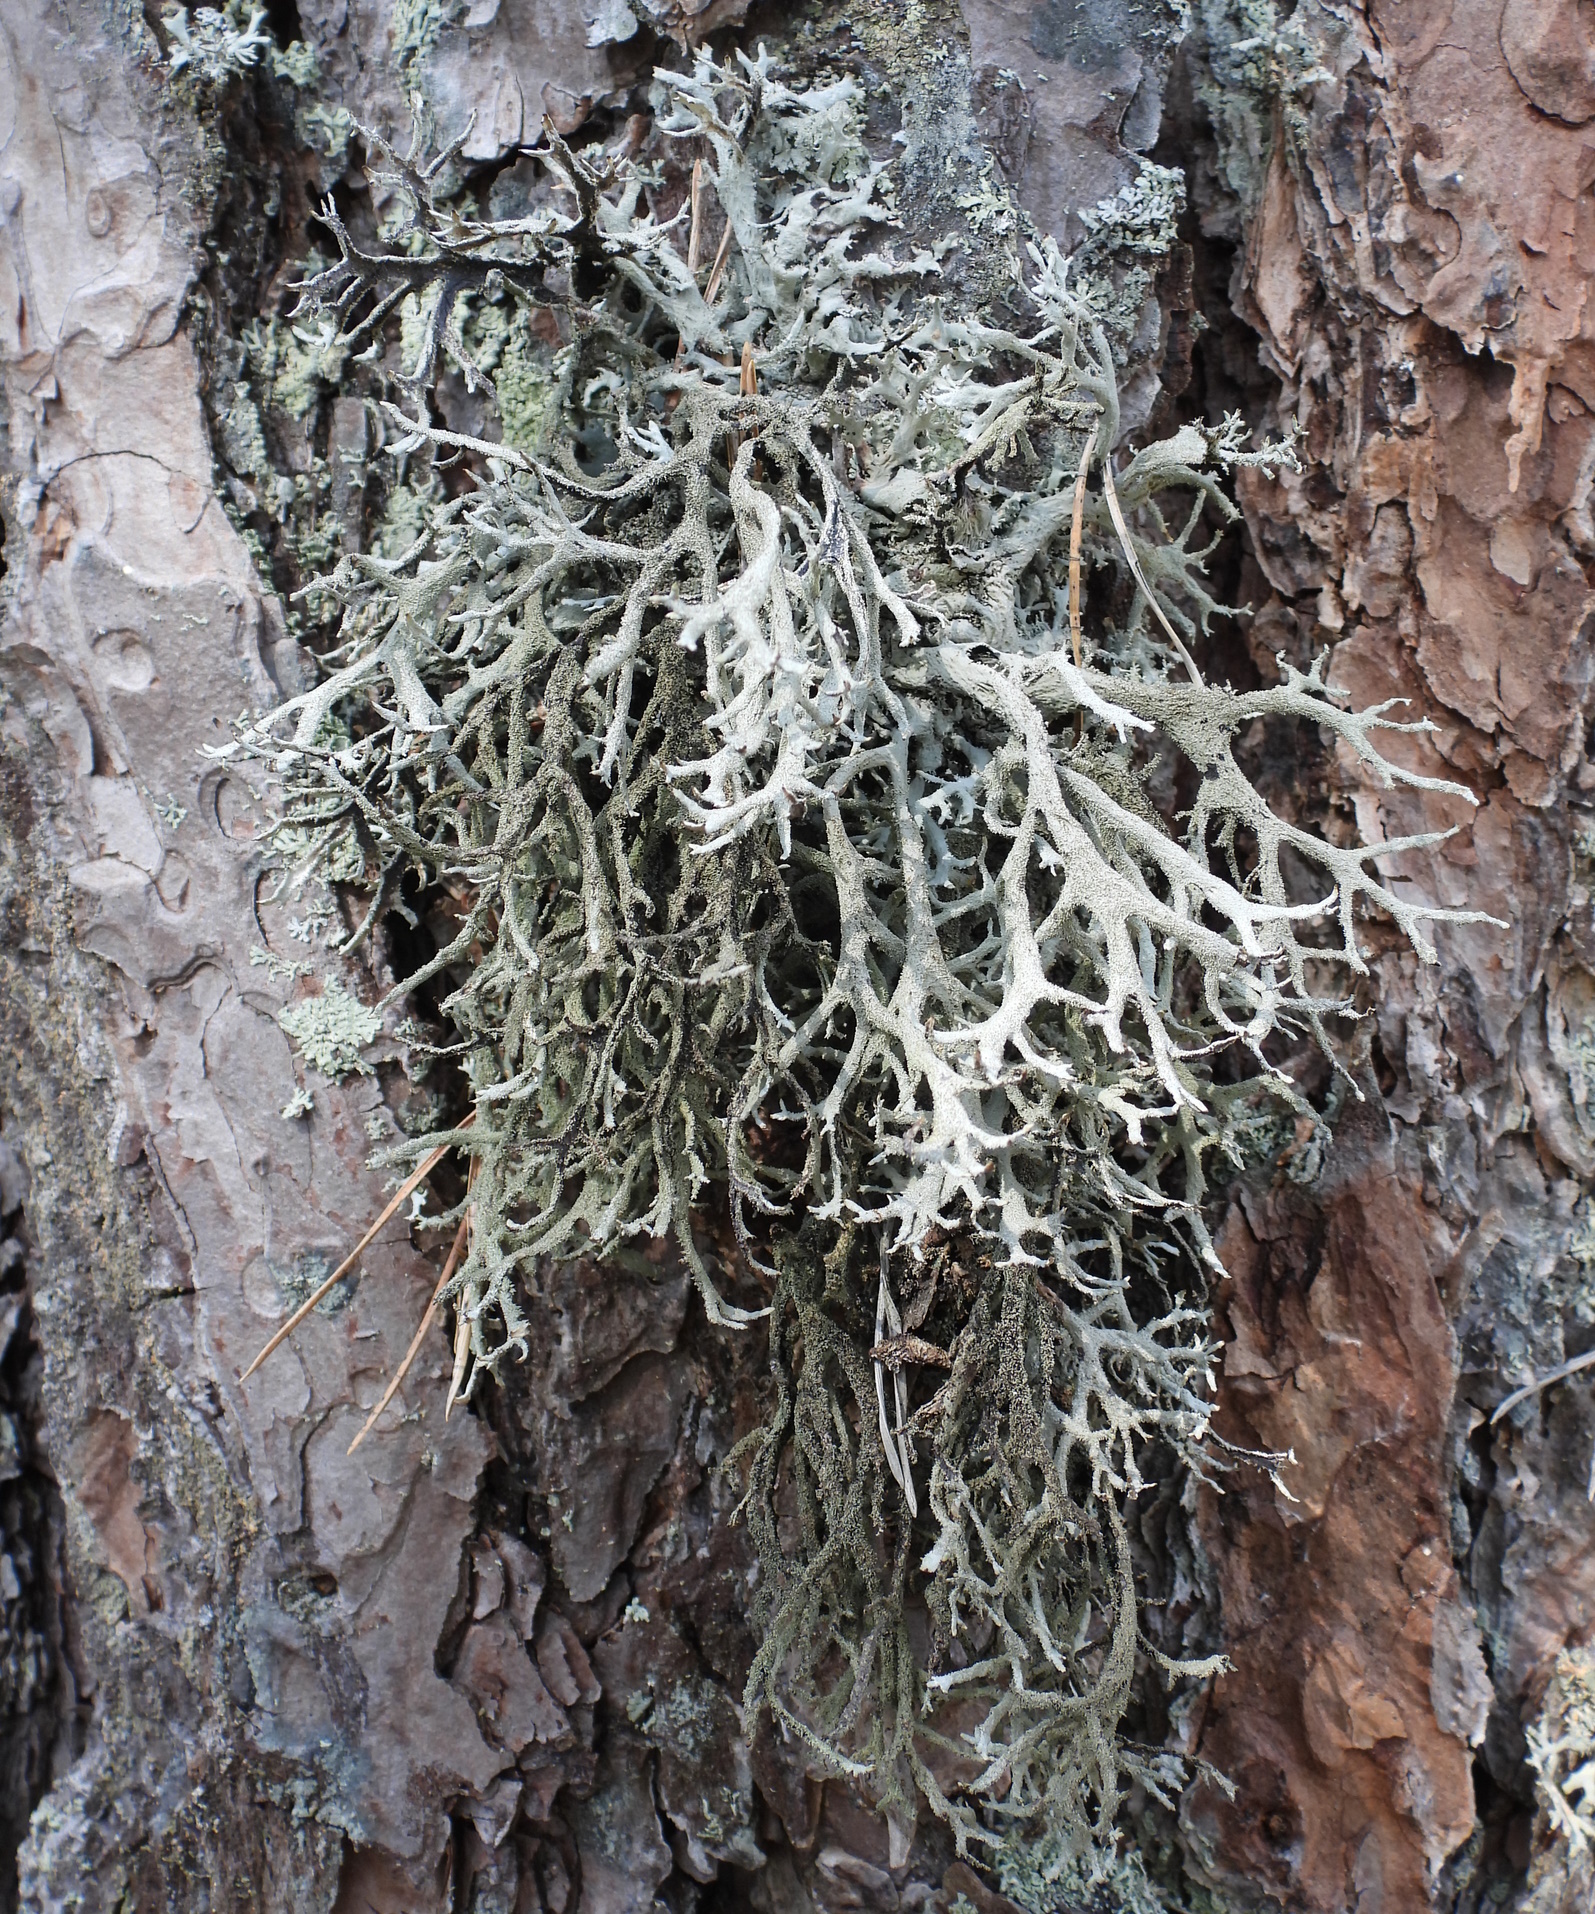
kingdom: Fungi
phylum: Ascomycota
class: Lecanoromycetes
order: Lecanorales
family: Parmeliaceae
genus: Pseudevernia
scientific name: Pseudevernia furfuracea
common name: Tree moss
